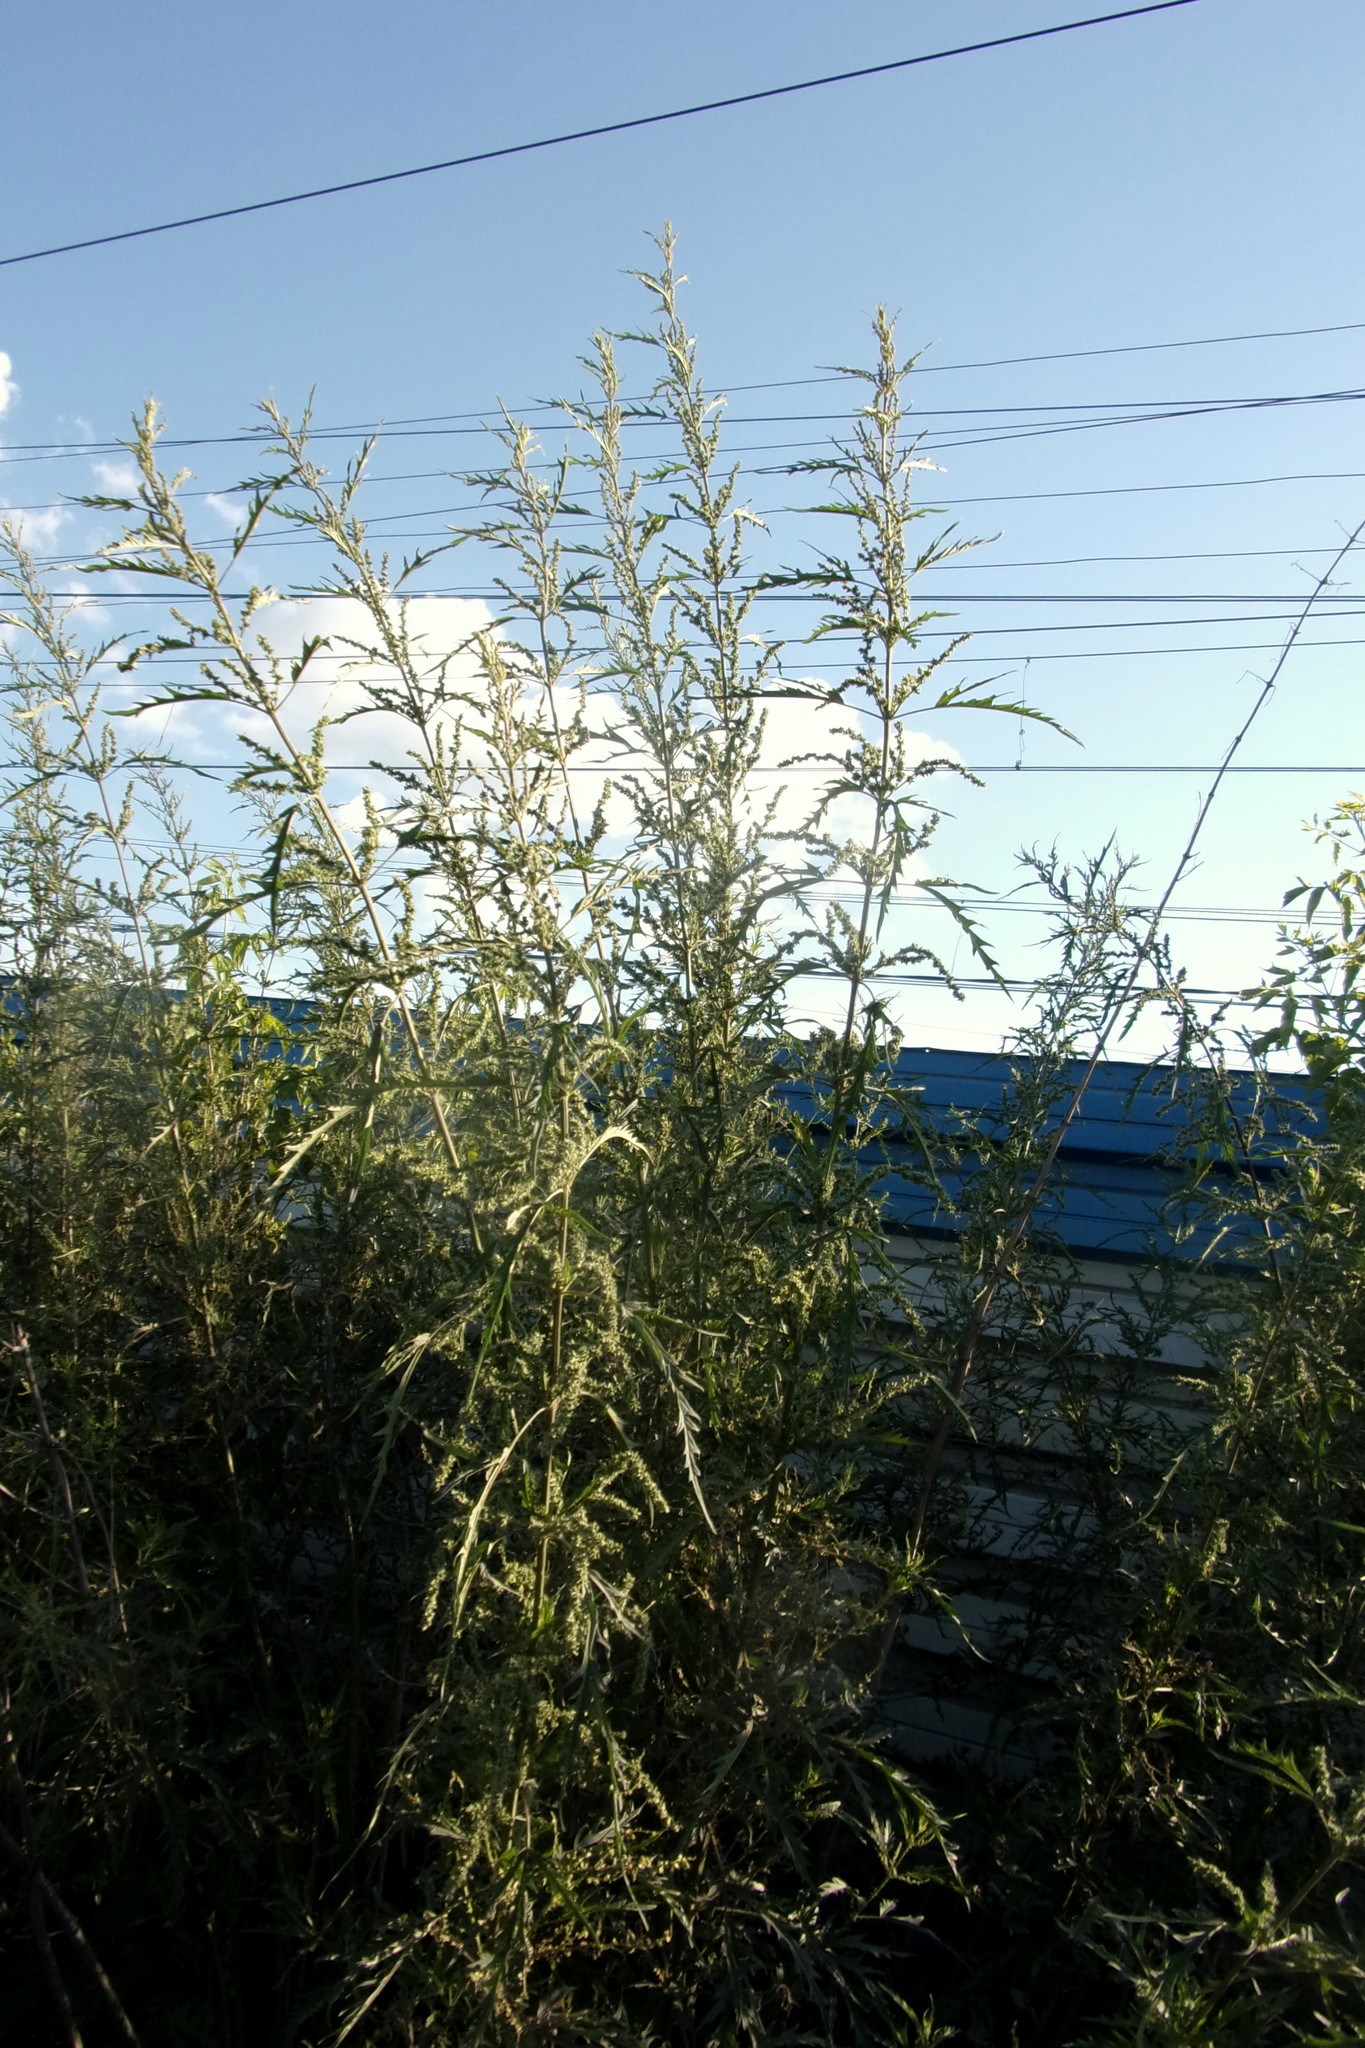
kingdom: Plantae
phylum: Tracheophyta
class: Magnoliopsida
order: Rosales
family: Urticaceae
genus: Urtica
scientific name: Urtica cannabina
